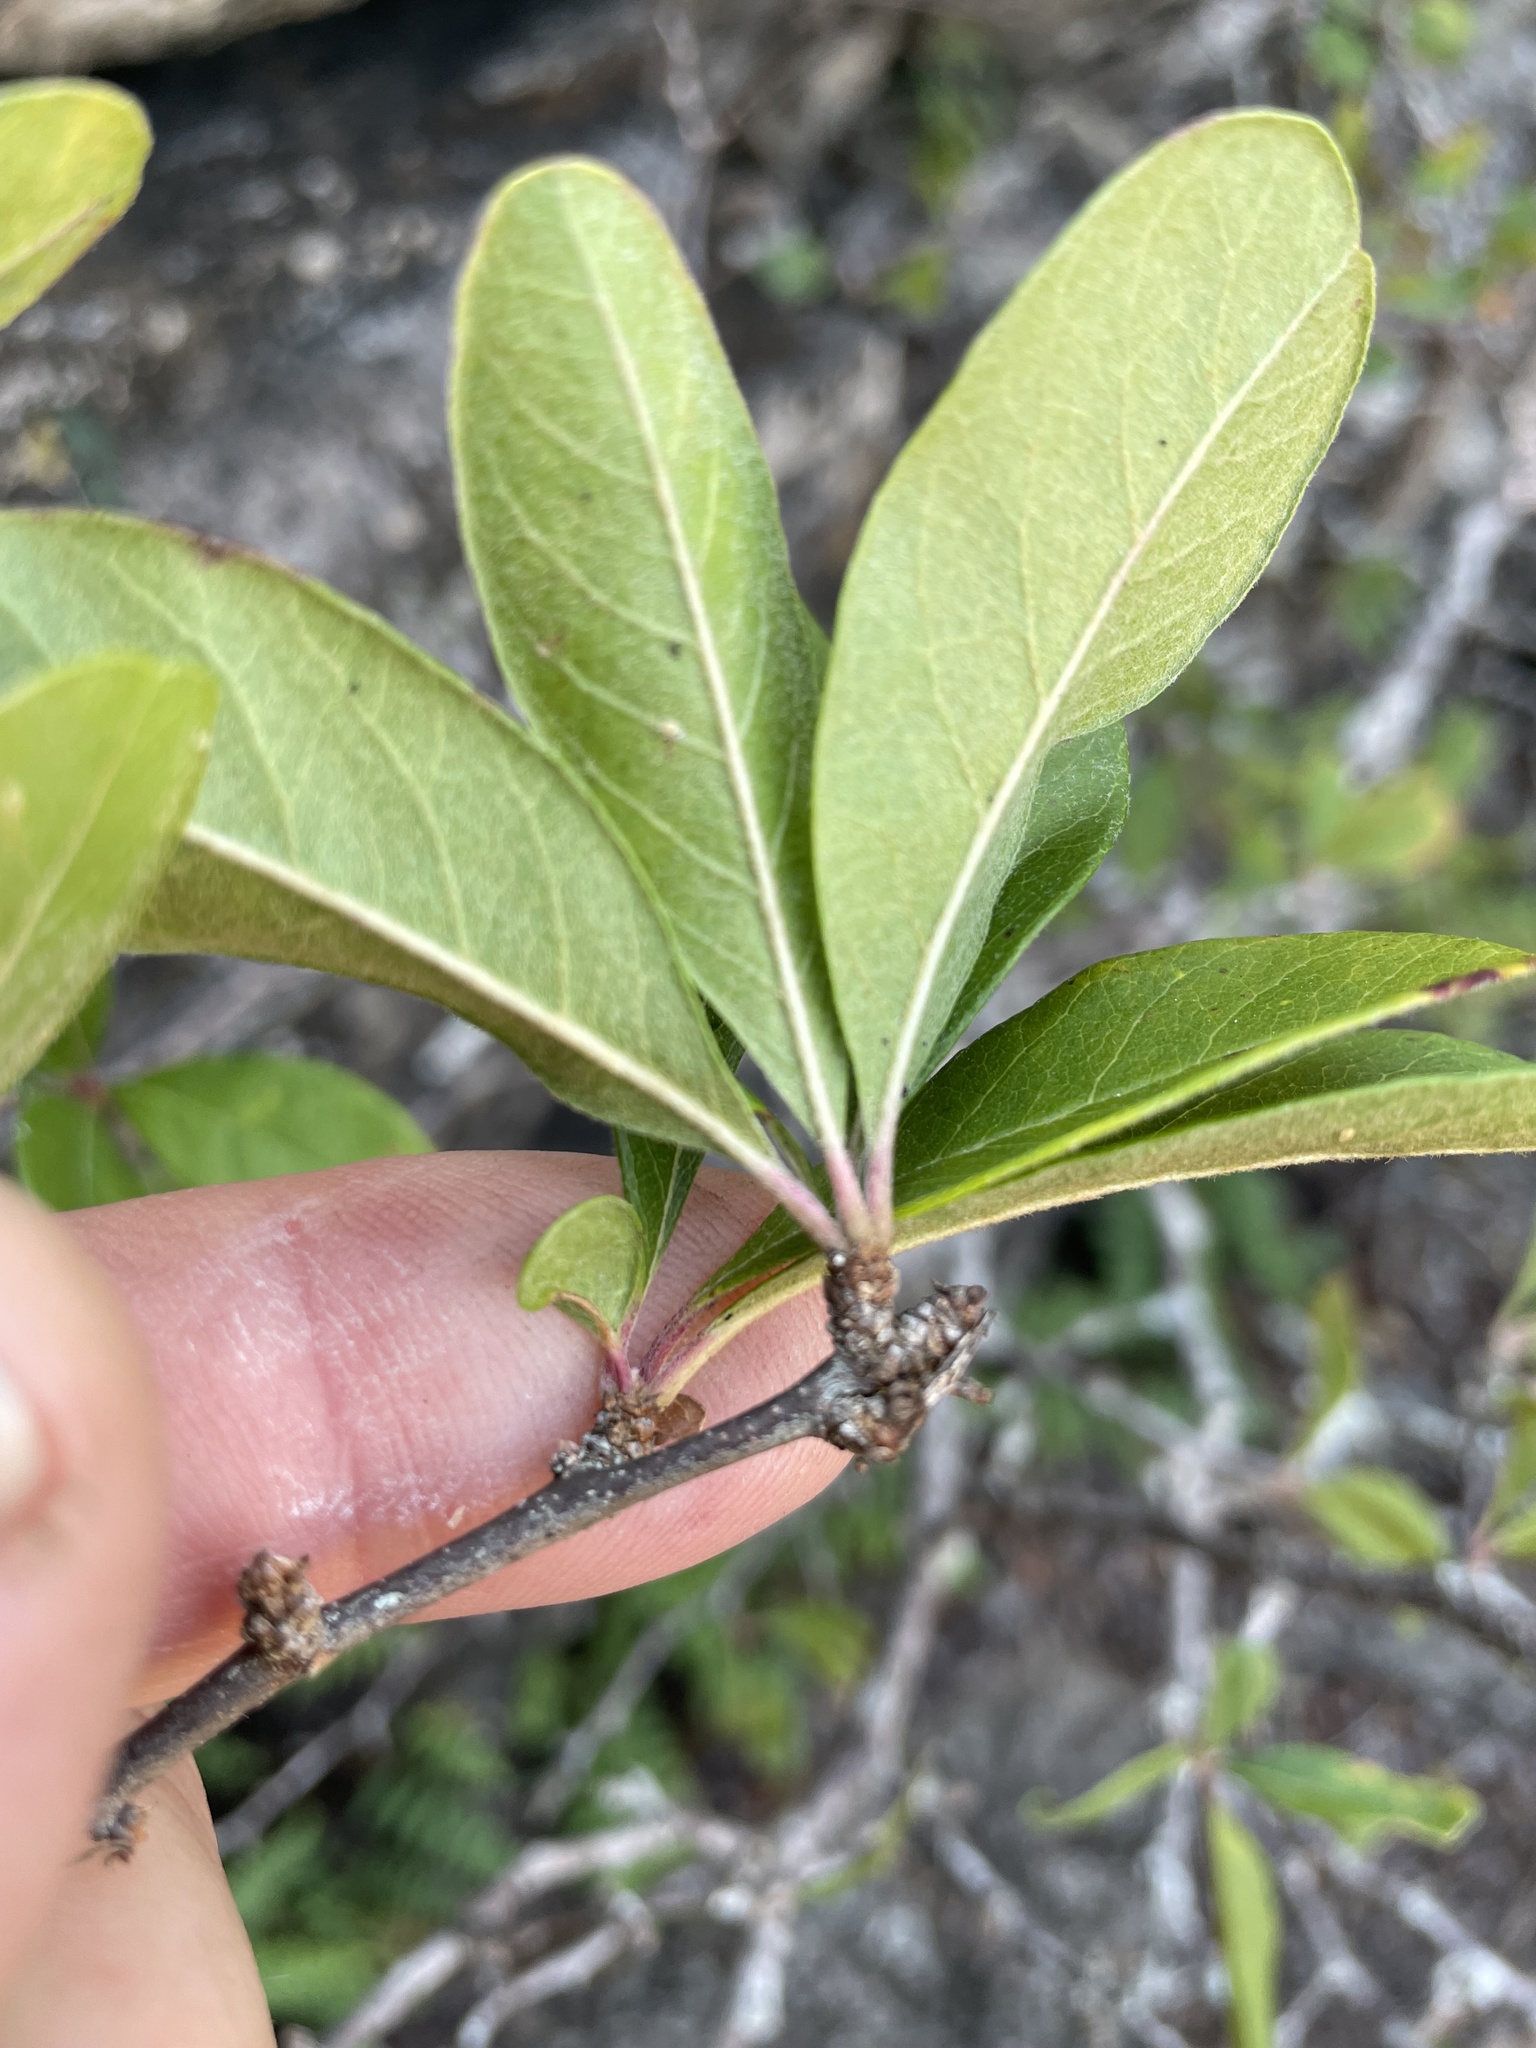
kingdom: Plantae
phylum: Tracheophyta
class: Magnoliopsida
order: Ericales
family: Sapotaceae
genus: Sideroxylon
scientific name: Sideroxylon lanuginosum
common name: Chittamwood
